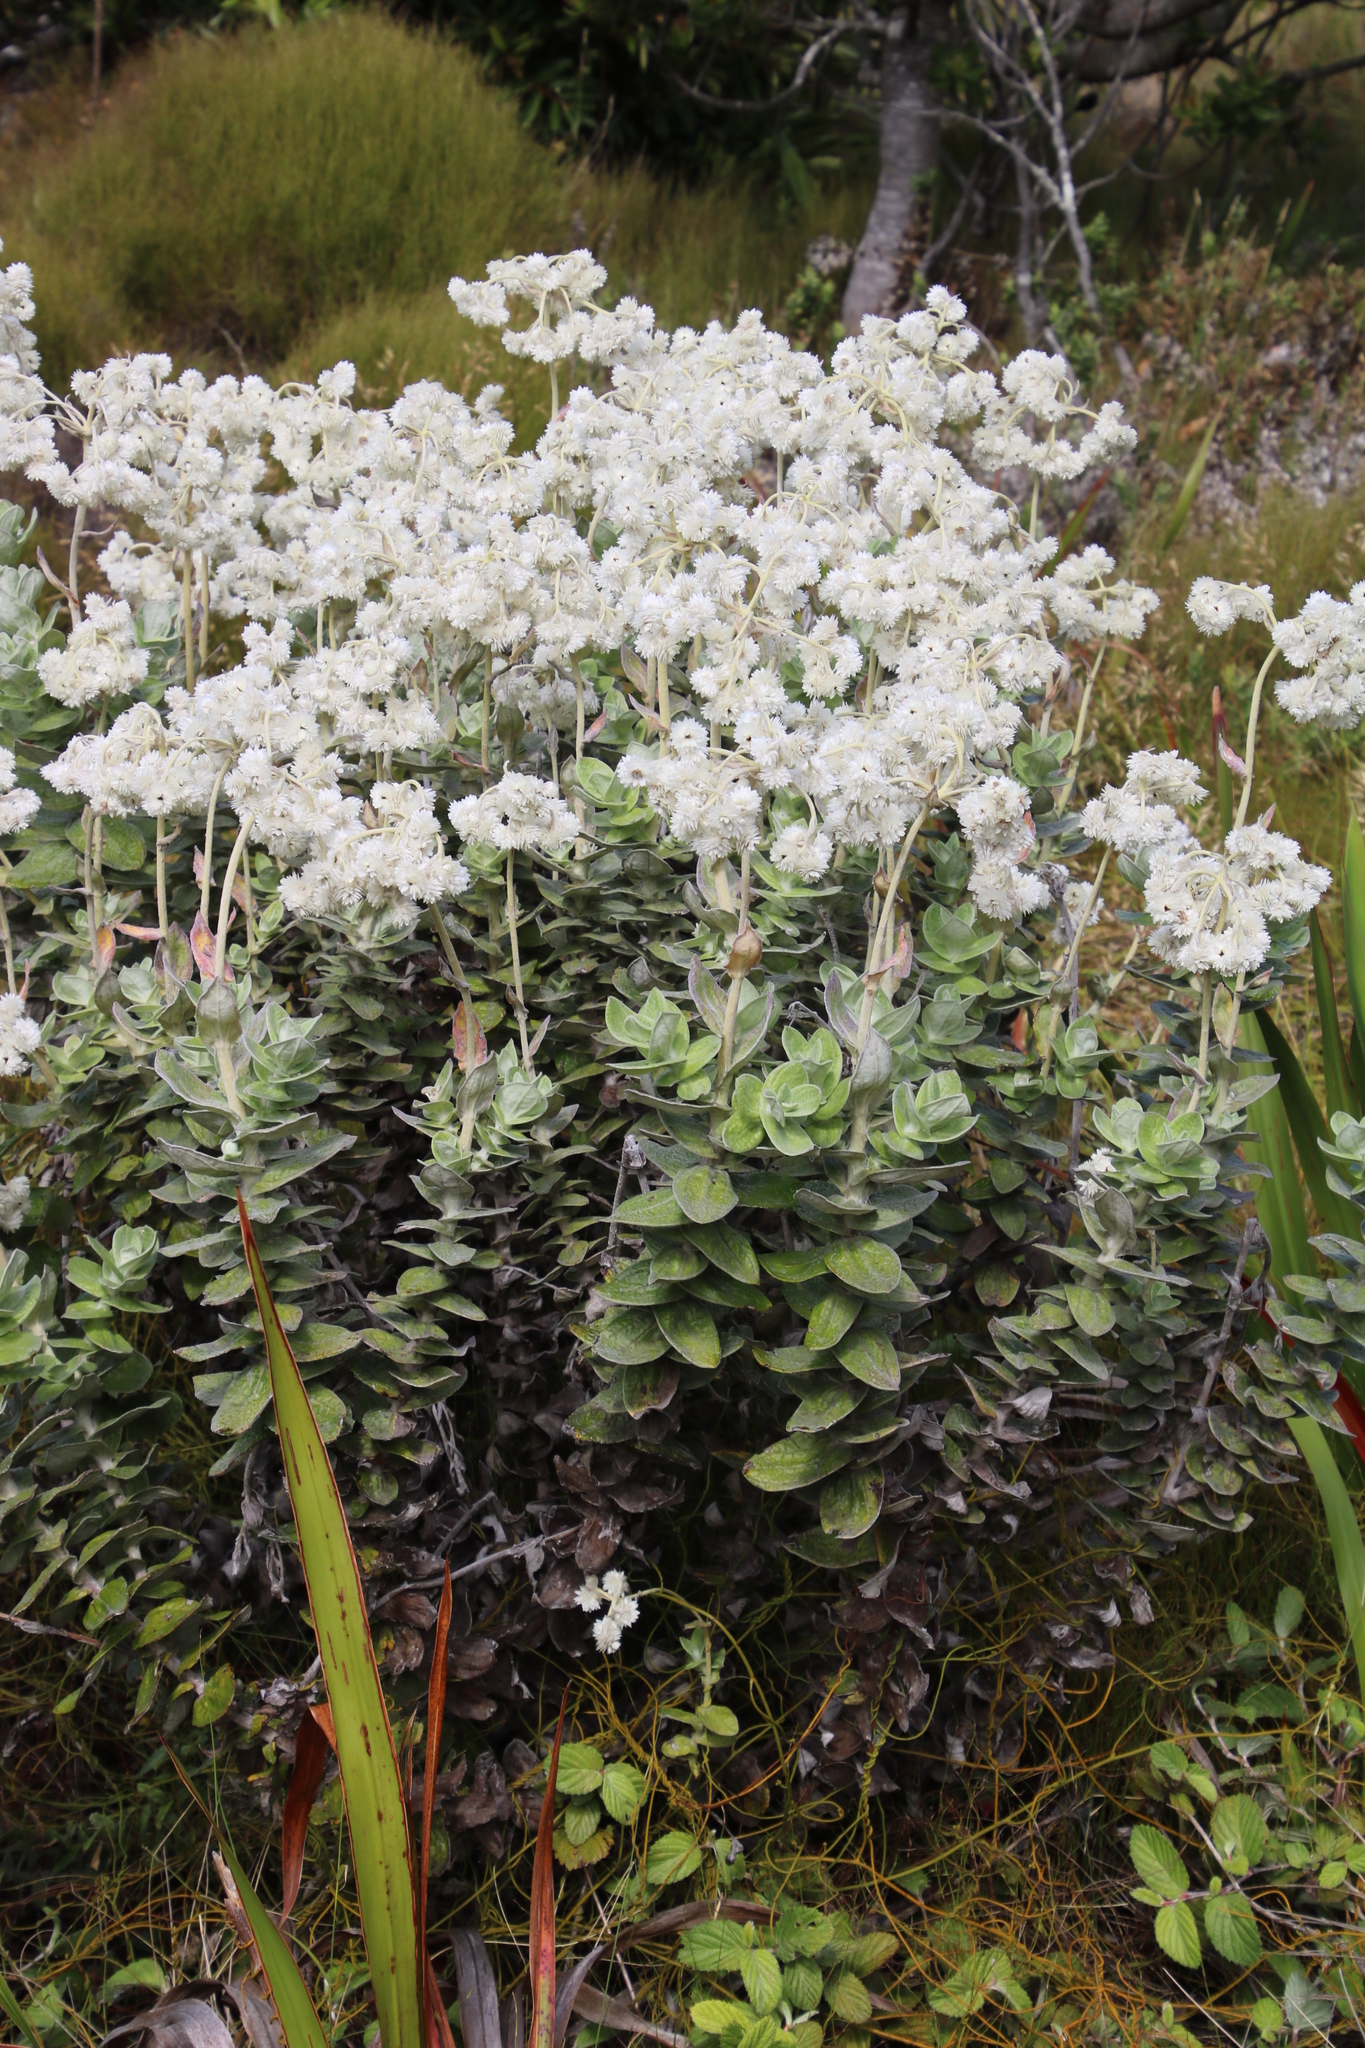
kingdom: Plantae
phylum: Tracheophyta
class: Magnoliopsida
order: Asterales
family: Asteraceae
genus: Helichrysum
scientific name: Helichrysum fruticans
